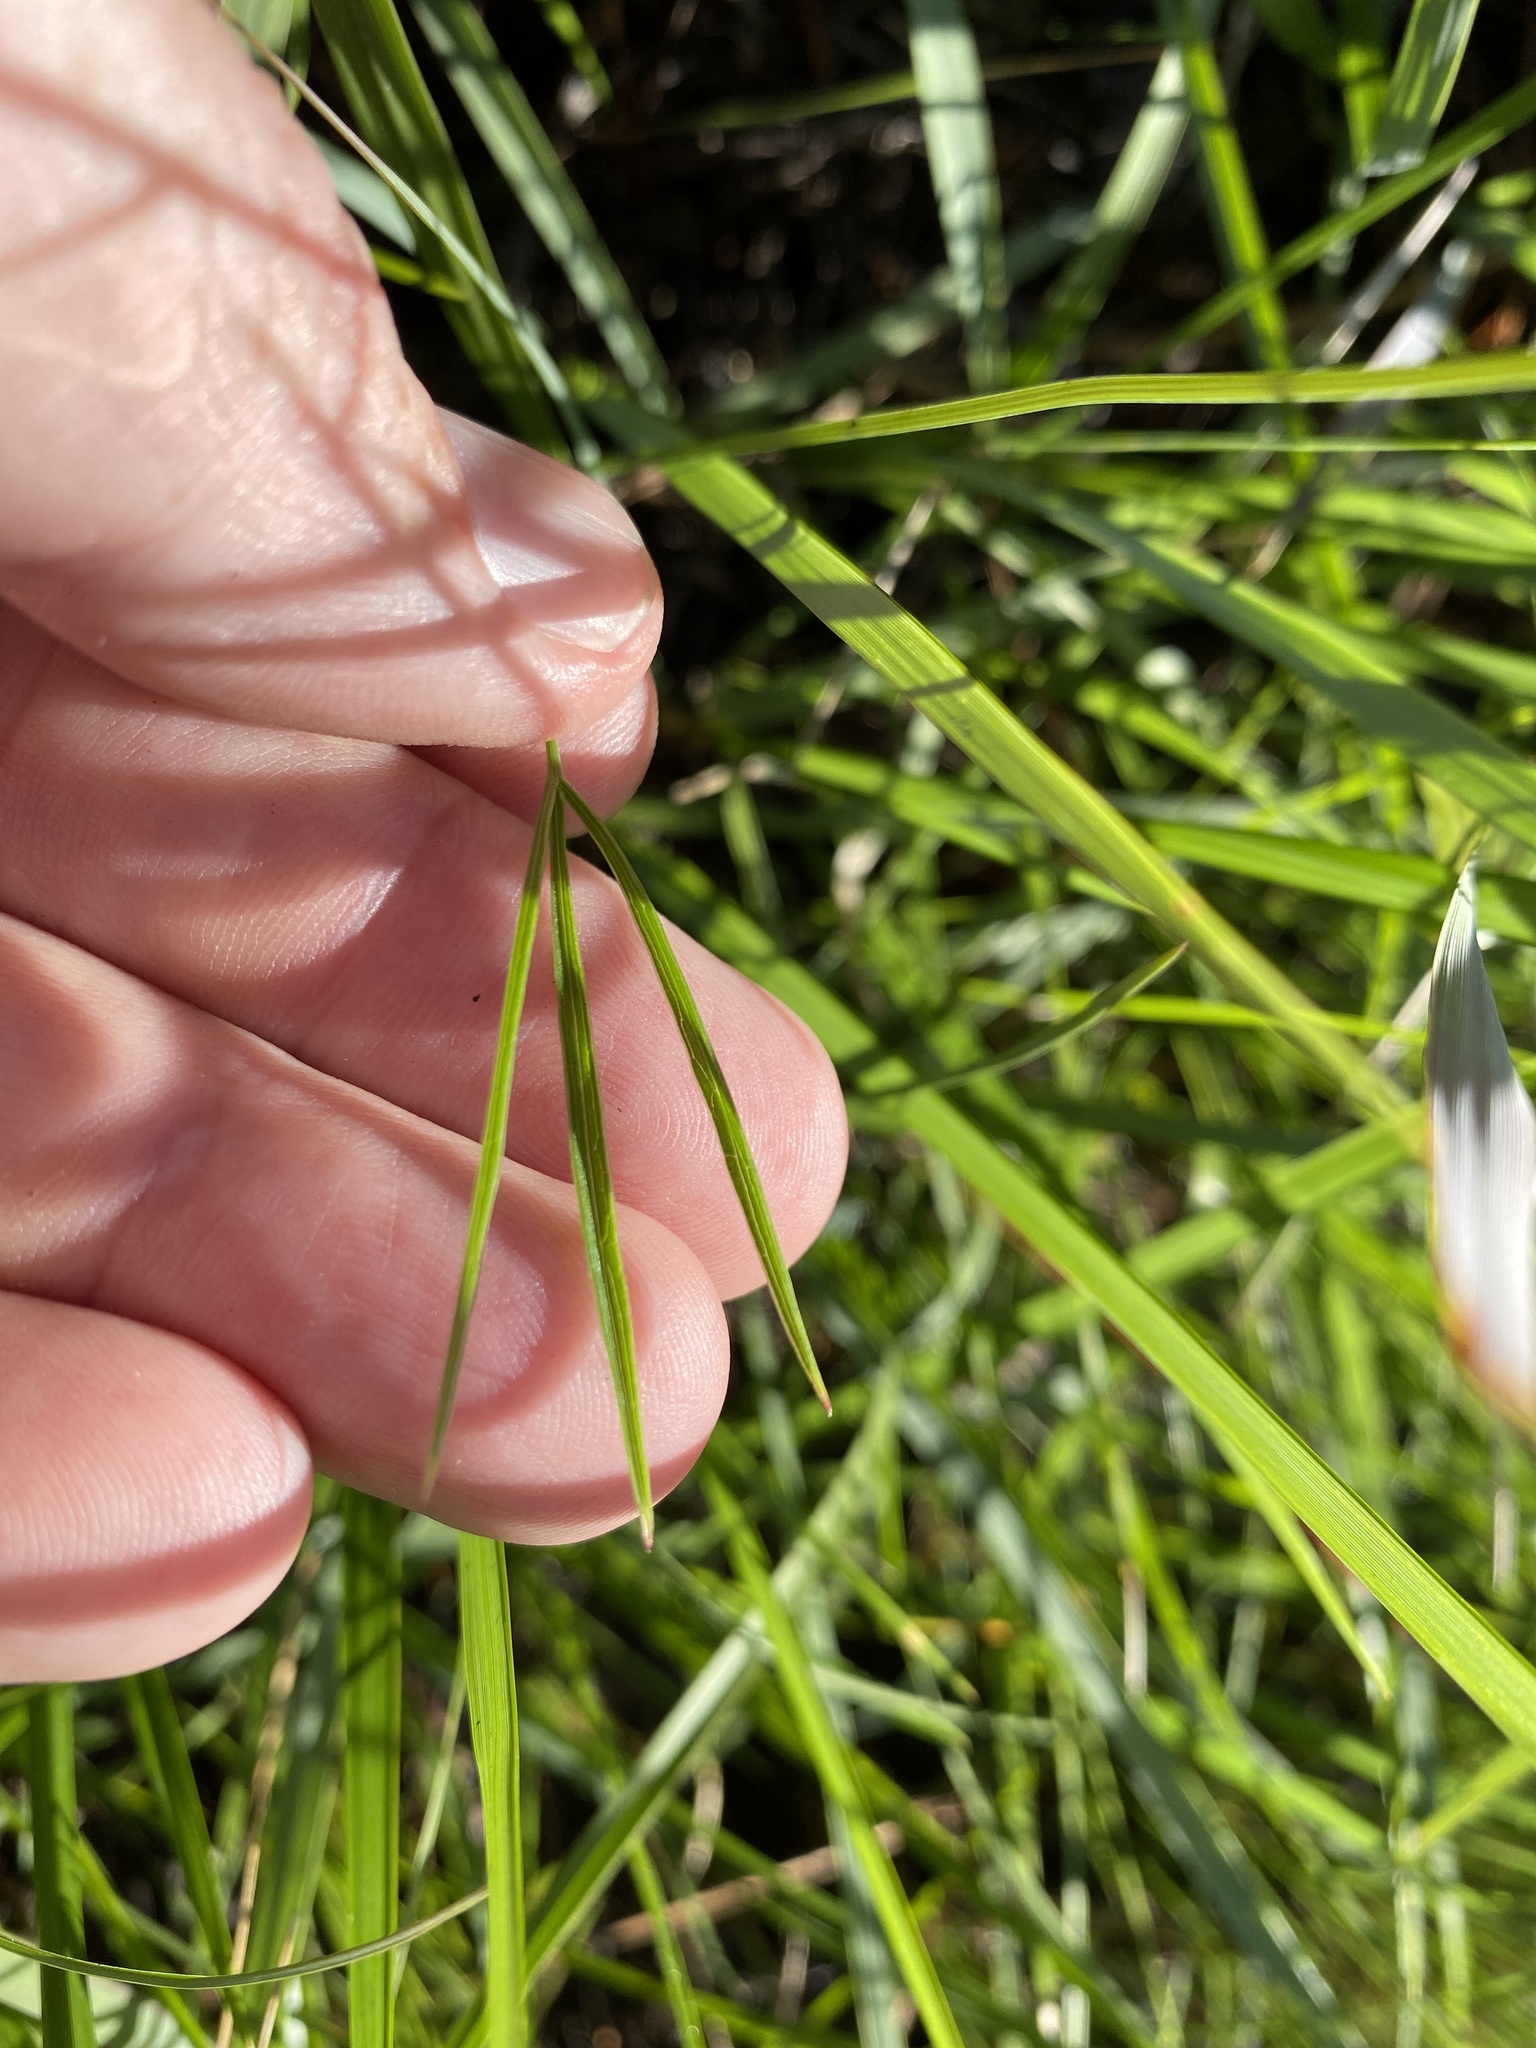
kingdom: Plantae
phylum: Tracheophyta
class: Magnoliopsida
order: Apiales
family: Apiaceae
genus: Oxypolis
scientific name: Oxypolis ternata
